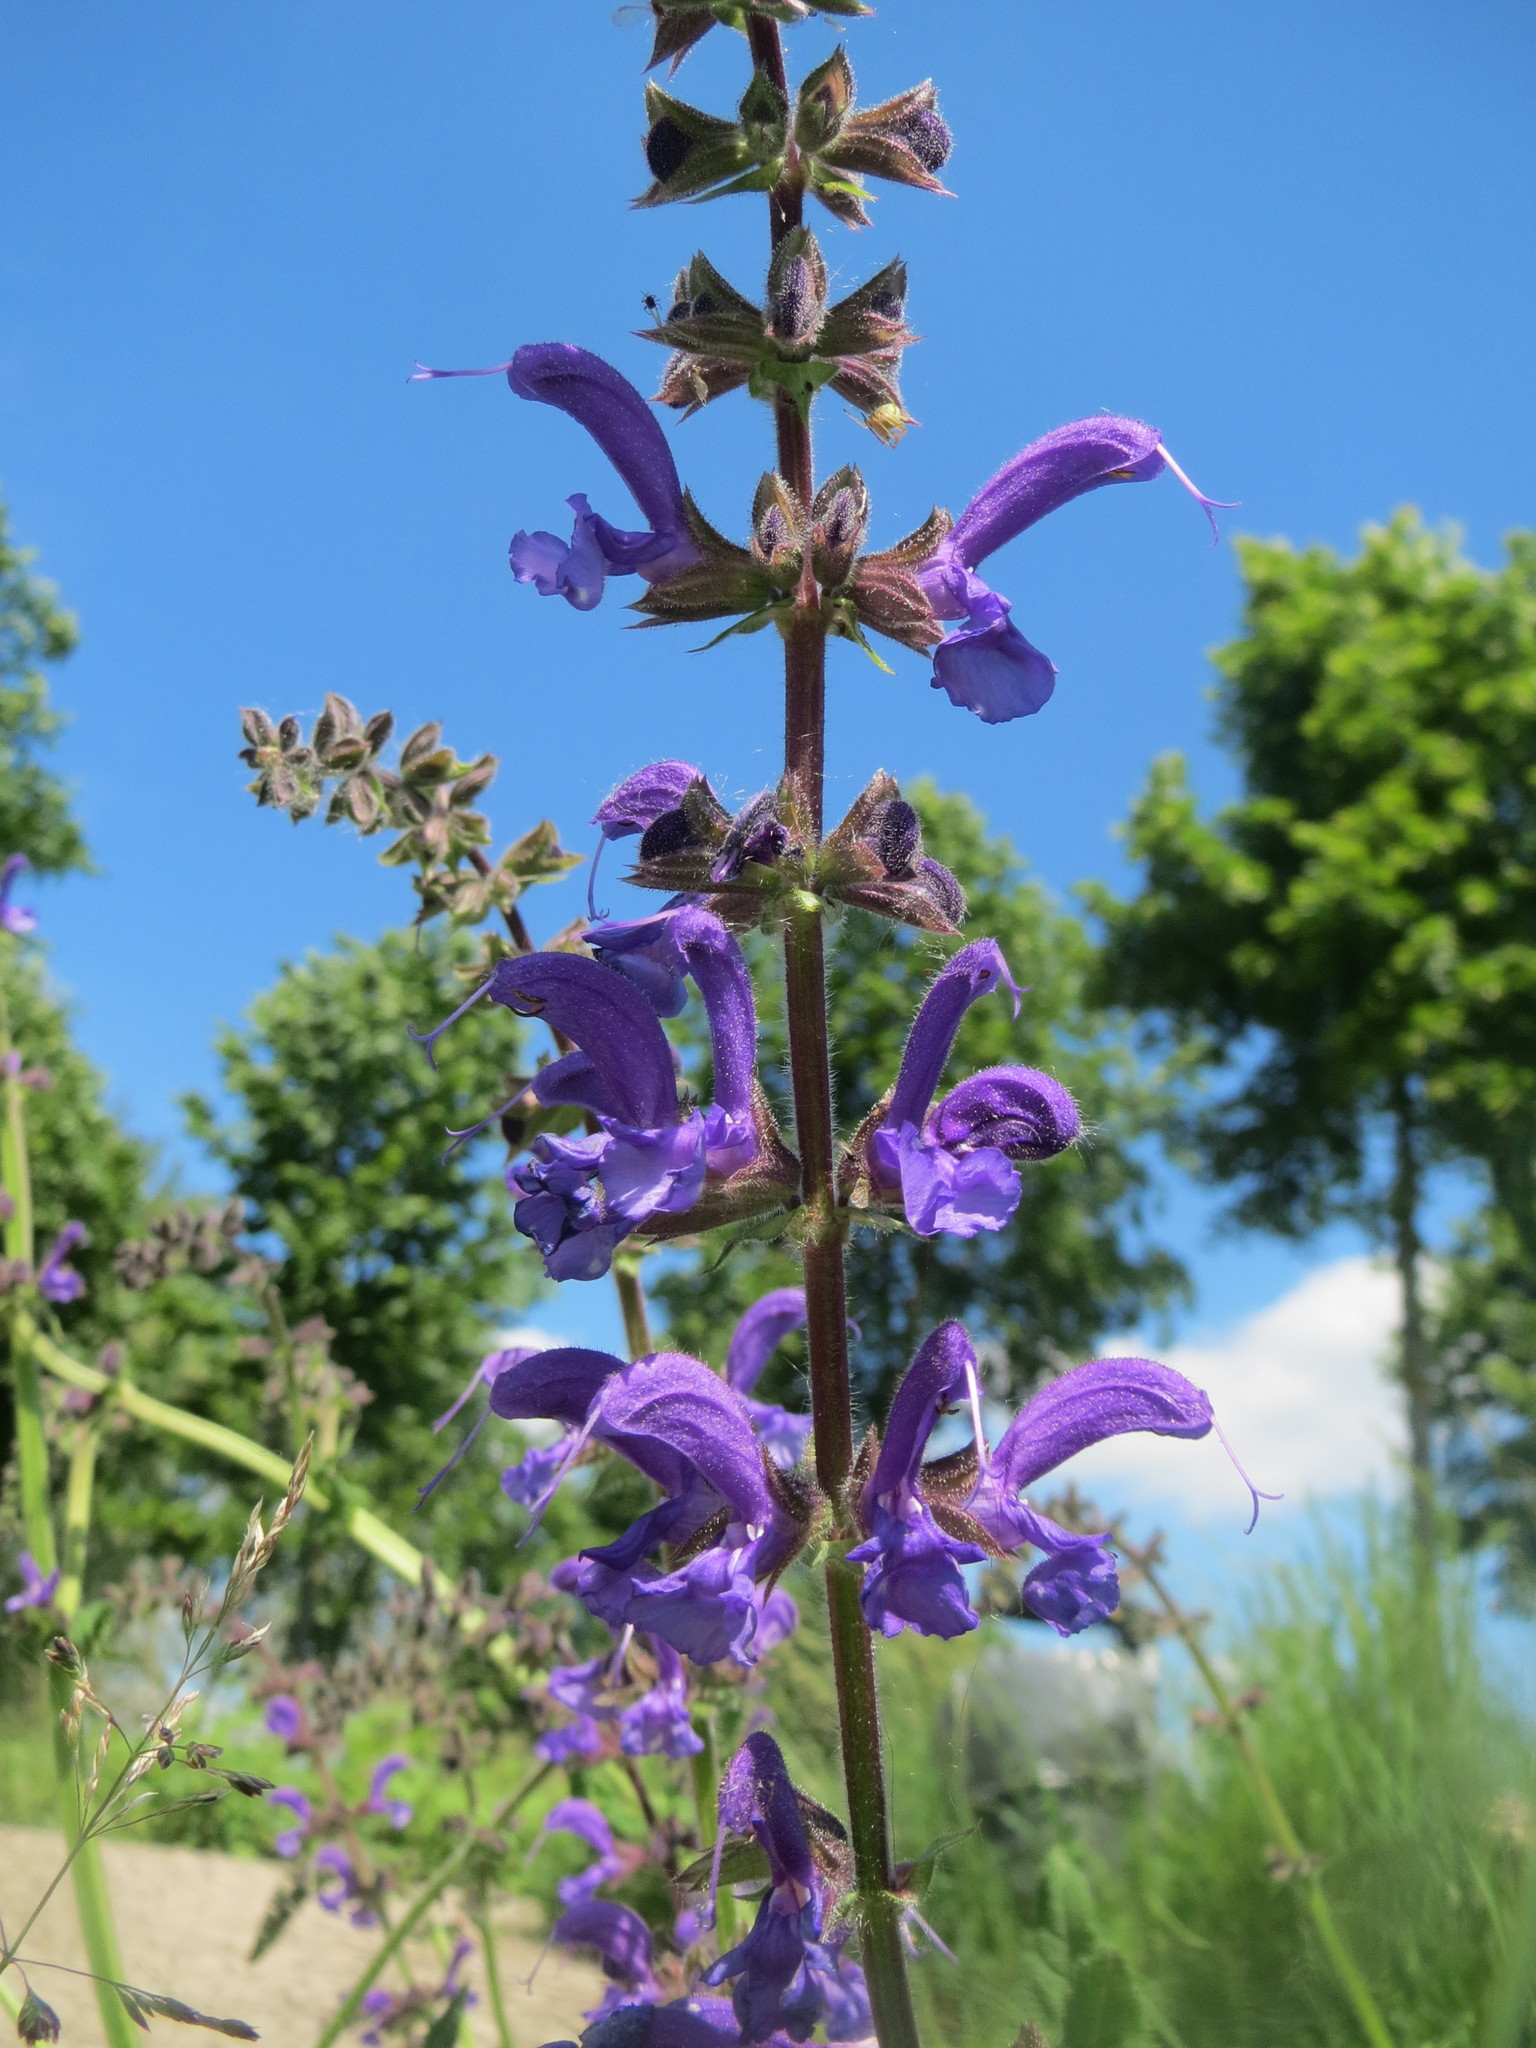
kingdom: Plantae
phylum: Tracheophyta
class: Magnoliopsida
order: Lamiales
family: Lamiaceae
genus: Salvia
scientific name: Salvia pratensis
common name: Meadow sage
